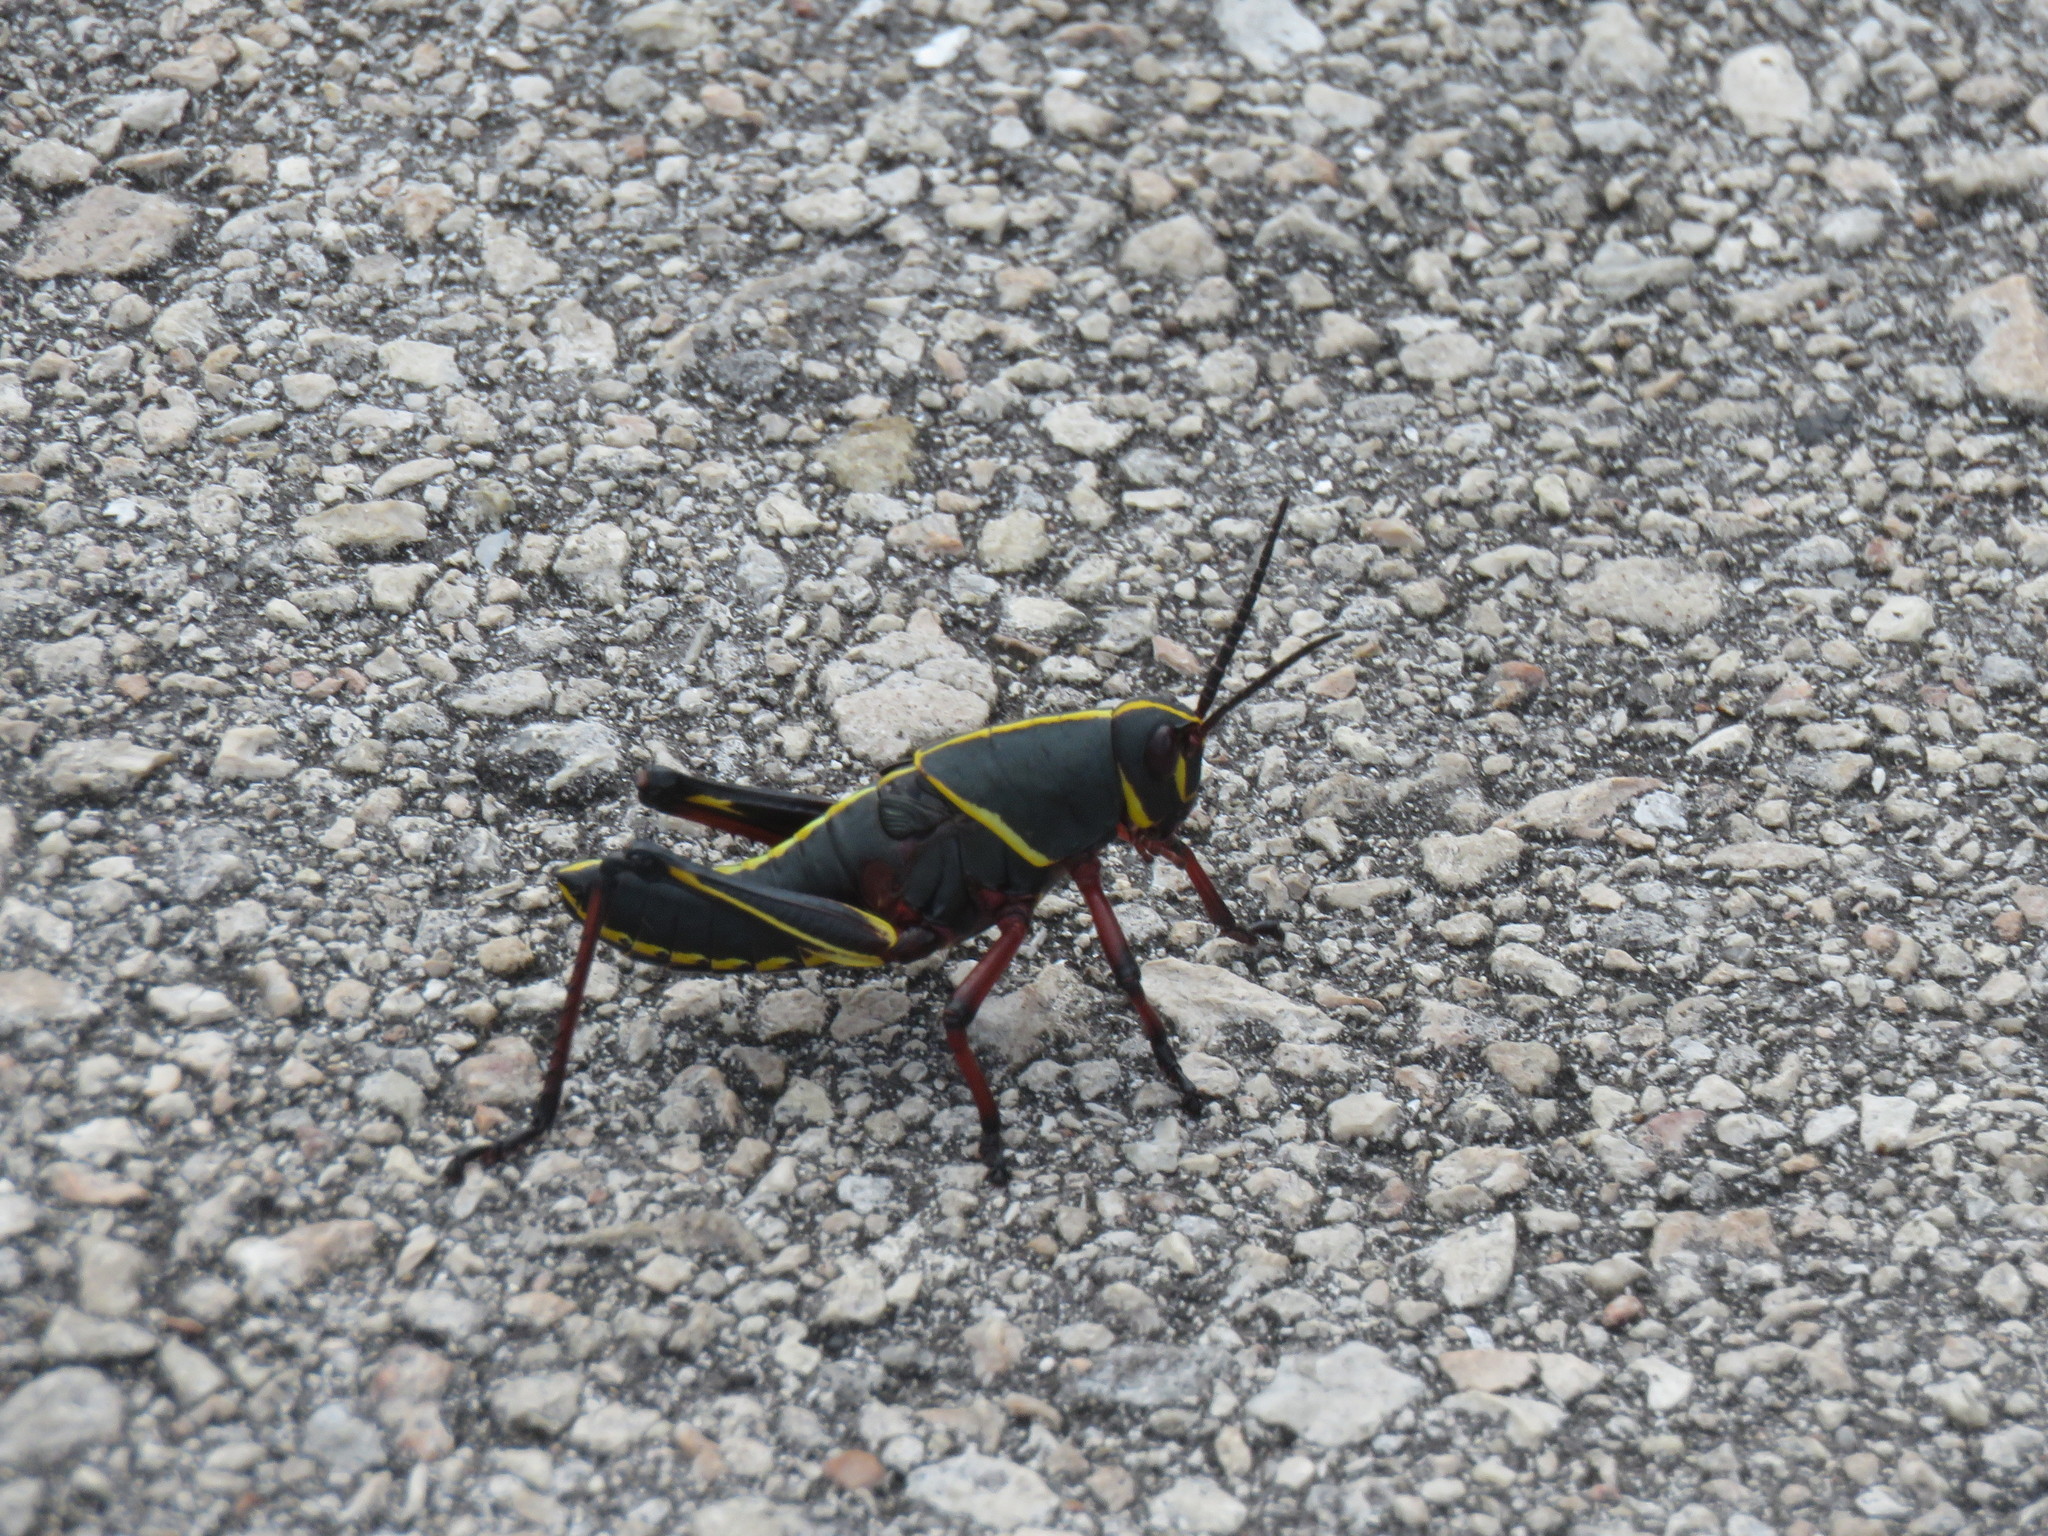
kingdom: Animalia
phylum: Arthropoda
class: Insecta
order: Orthoptera
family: Romaleidae
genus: Romalea
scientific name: Romalea microptera
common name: Eastern lubber grasshopper
